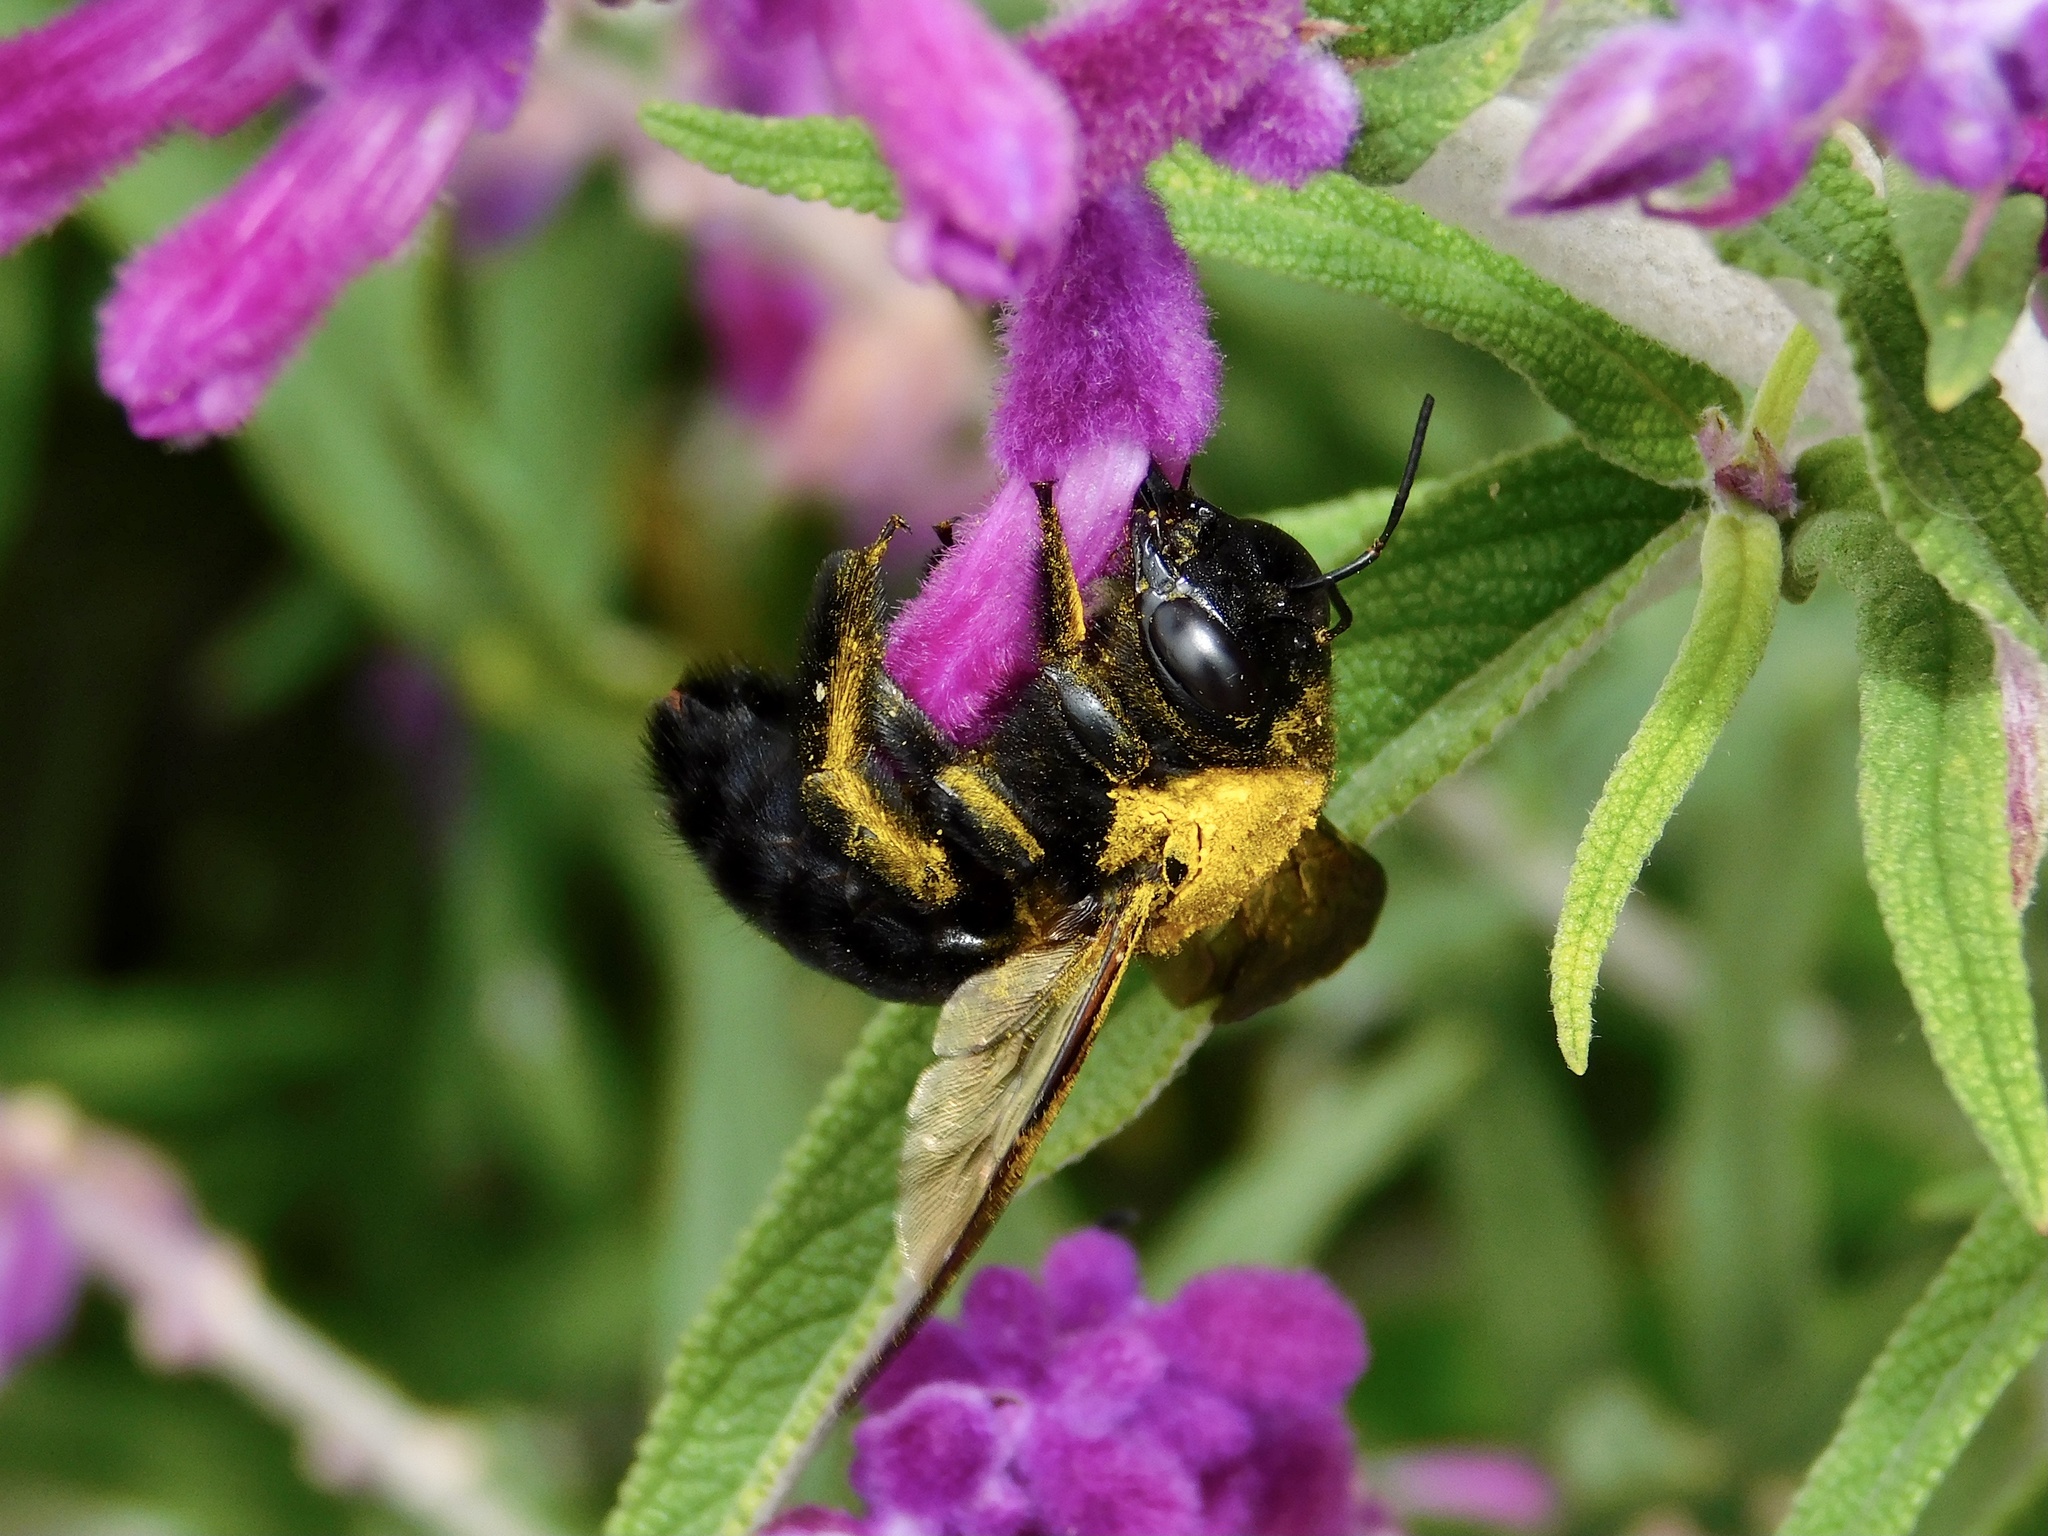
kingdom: Animalia
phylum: Arthropoda
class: Insecta
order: Hymenoptera
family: Apidae
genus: Xylocopa
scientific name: Xylocopa sonorina
